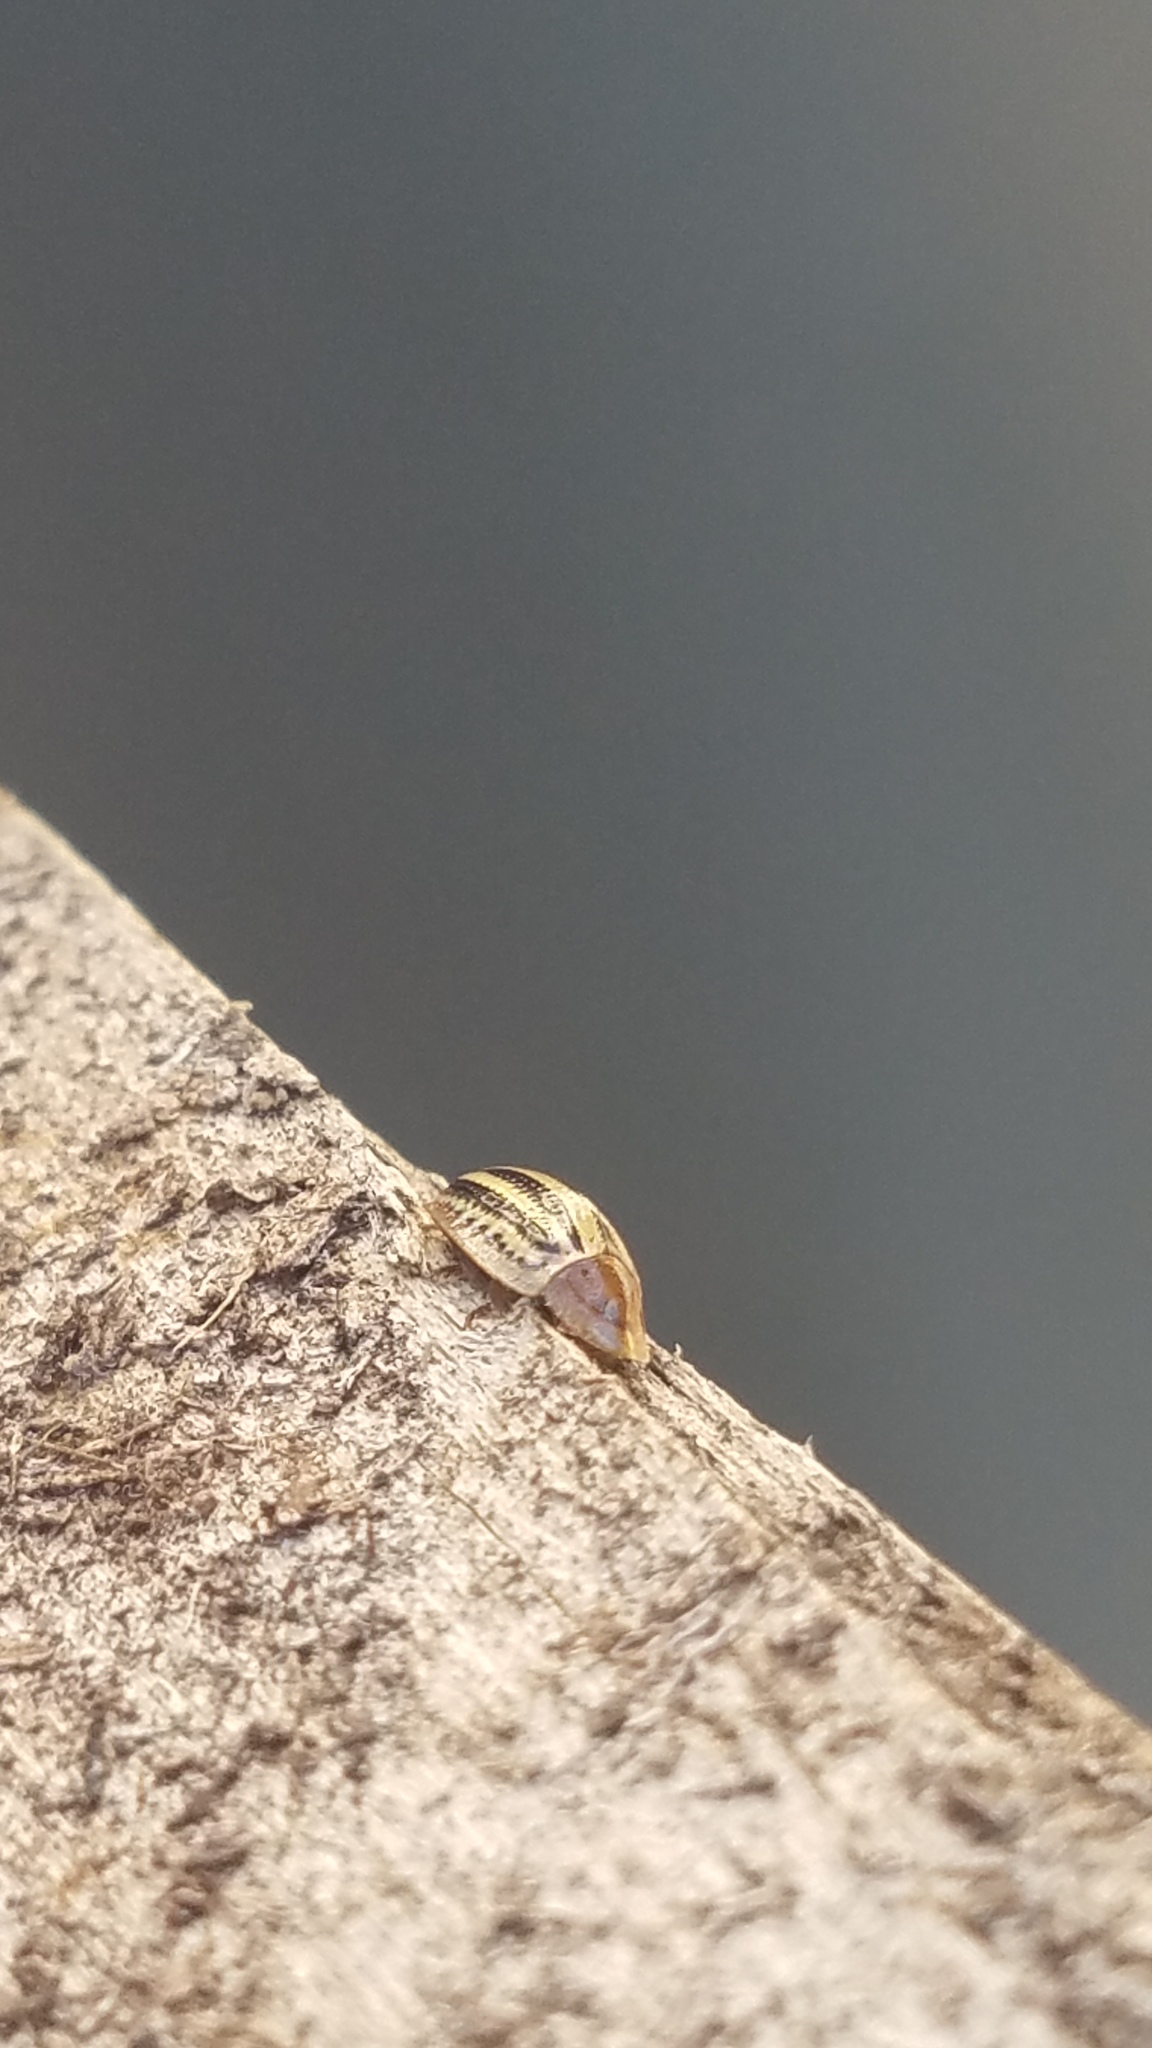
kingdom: Animalia
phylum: Arthropoda
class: Insecta
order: Coleoptera
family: Chrysomelidae
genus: Agroiconota
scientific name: Agroiconota bivittata
